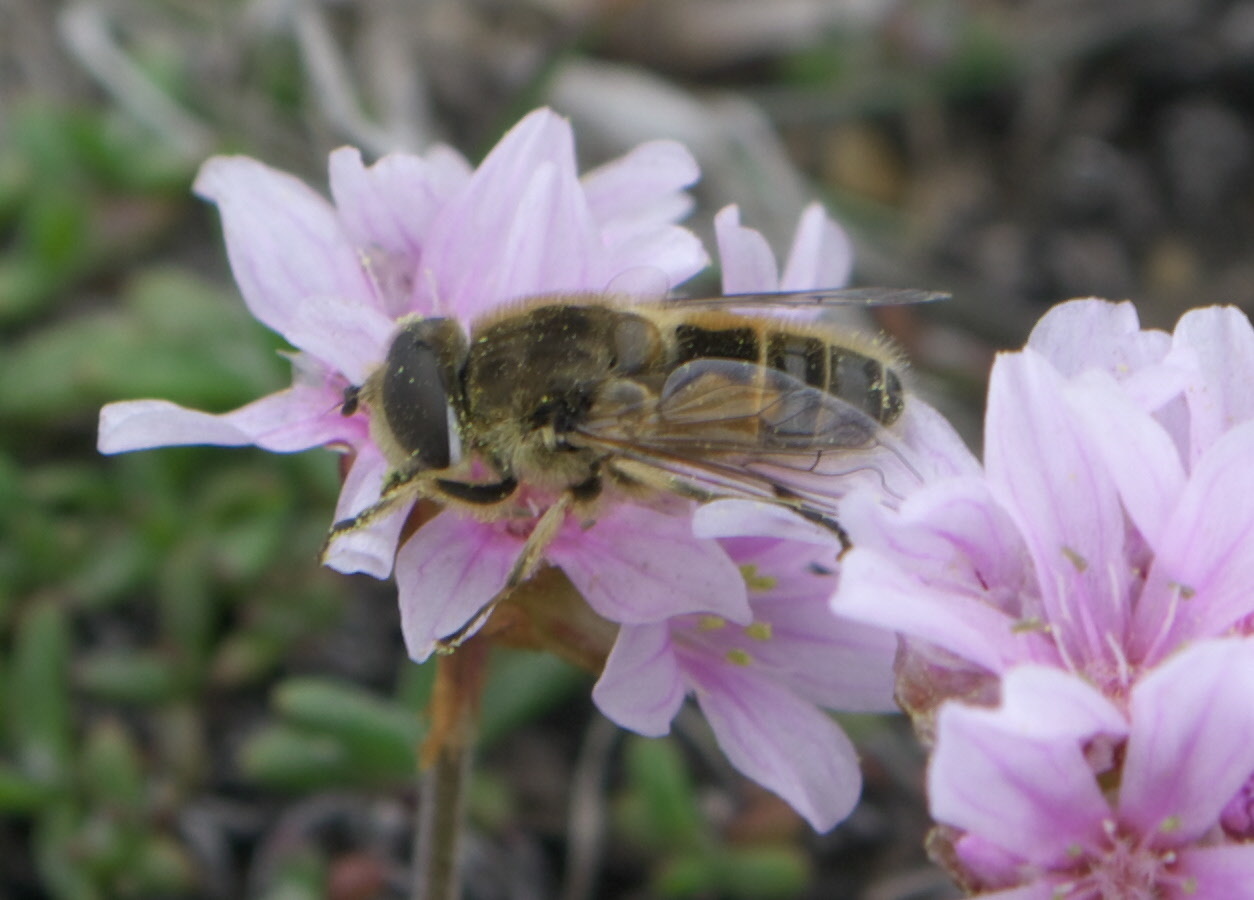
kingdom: Animalia
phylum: Arthropoda
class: Insecta
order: Diptera
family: Syrphidae
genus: Eristalis
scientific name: Eristalis
